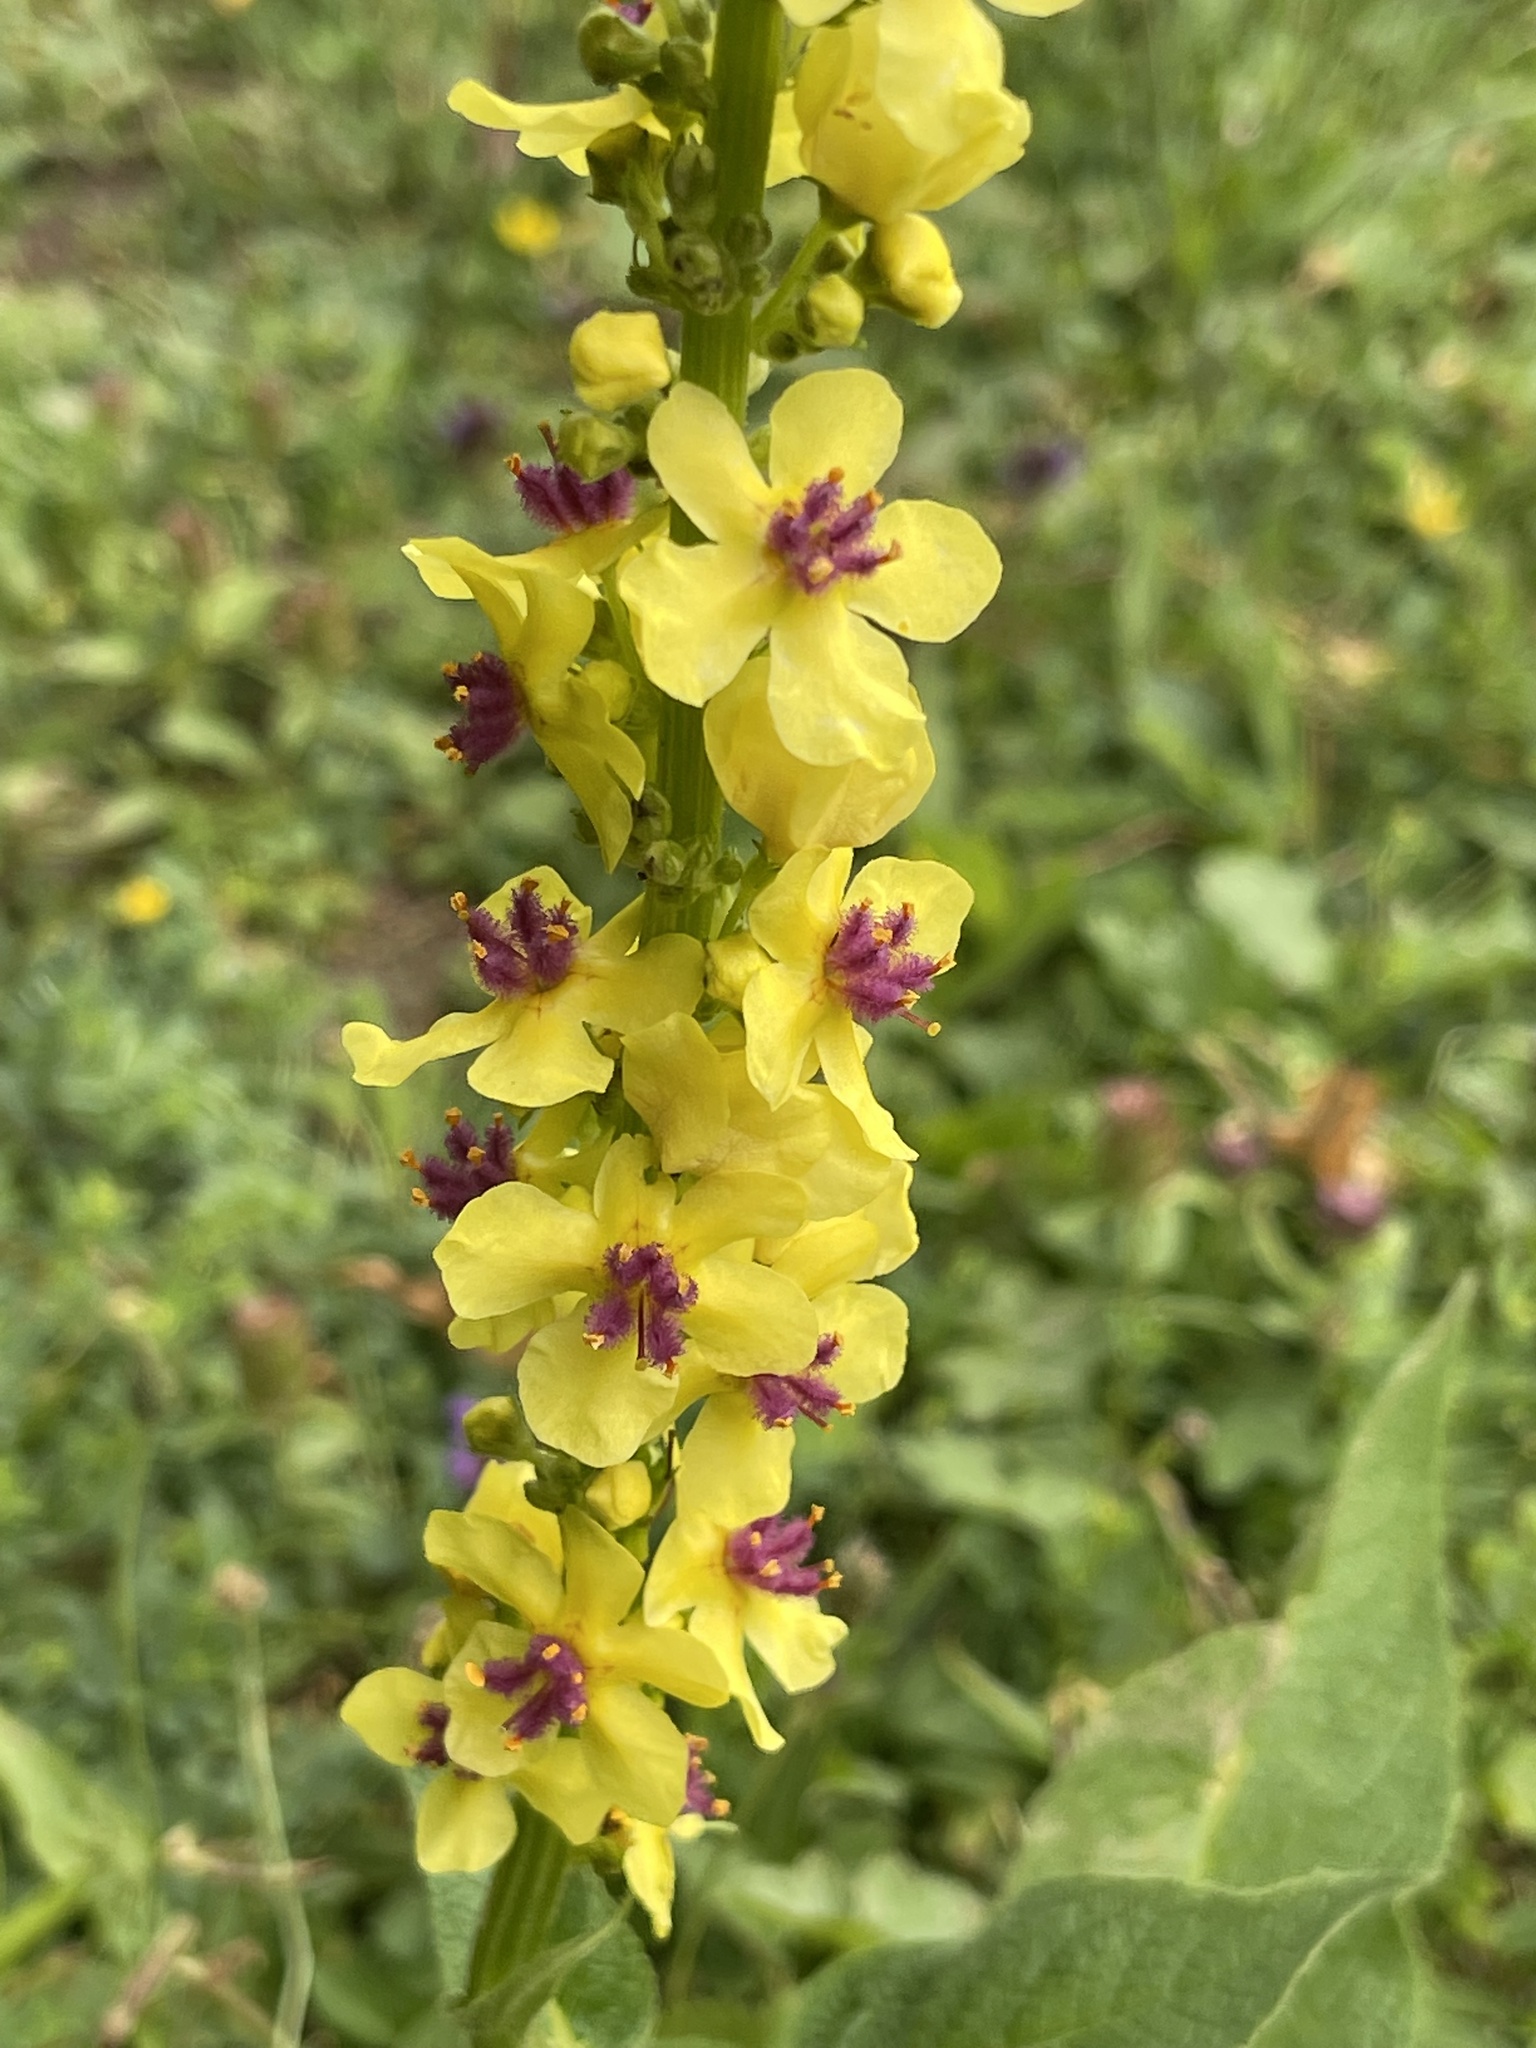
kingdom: Plantae
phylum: Tracheophyta
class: Magnoliopsida
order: Lamiales
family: Scrophulariaceae
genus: Verbascum
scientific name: Verbascum nigrum
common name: Dark mullein
